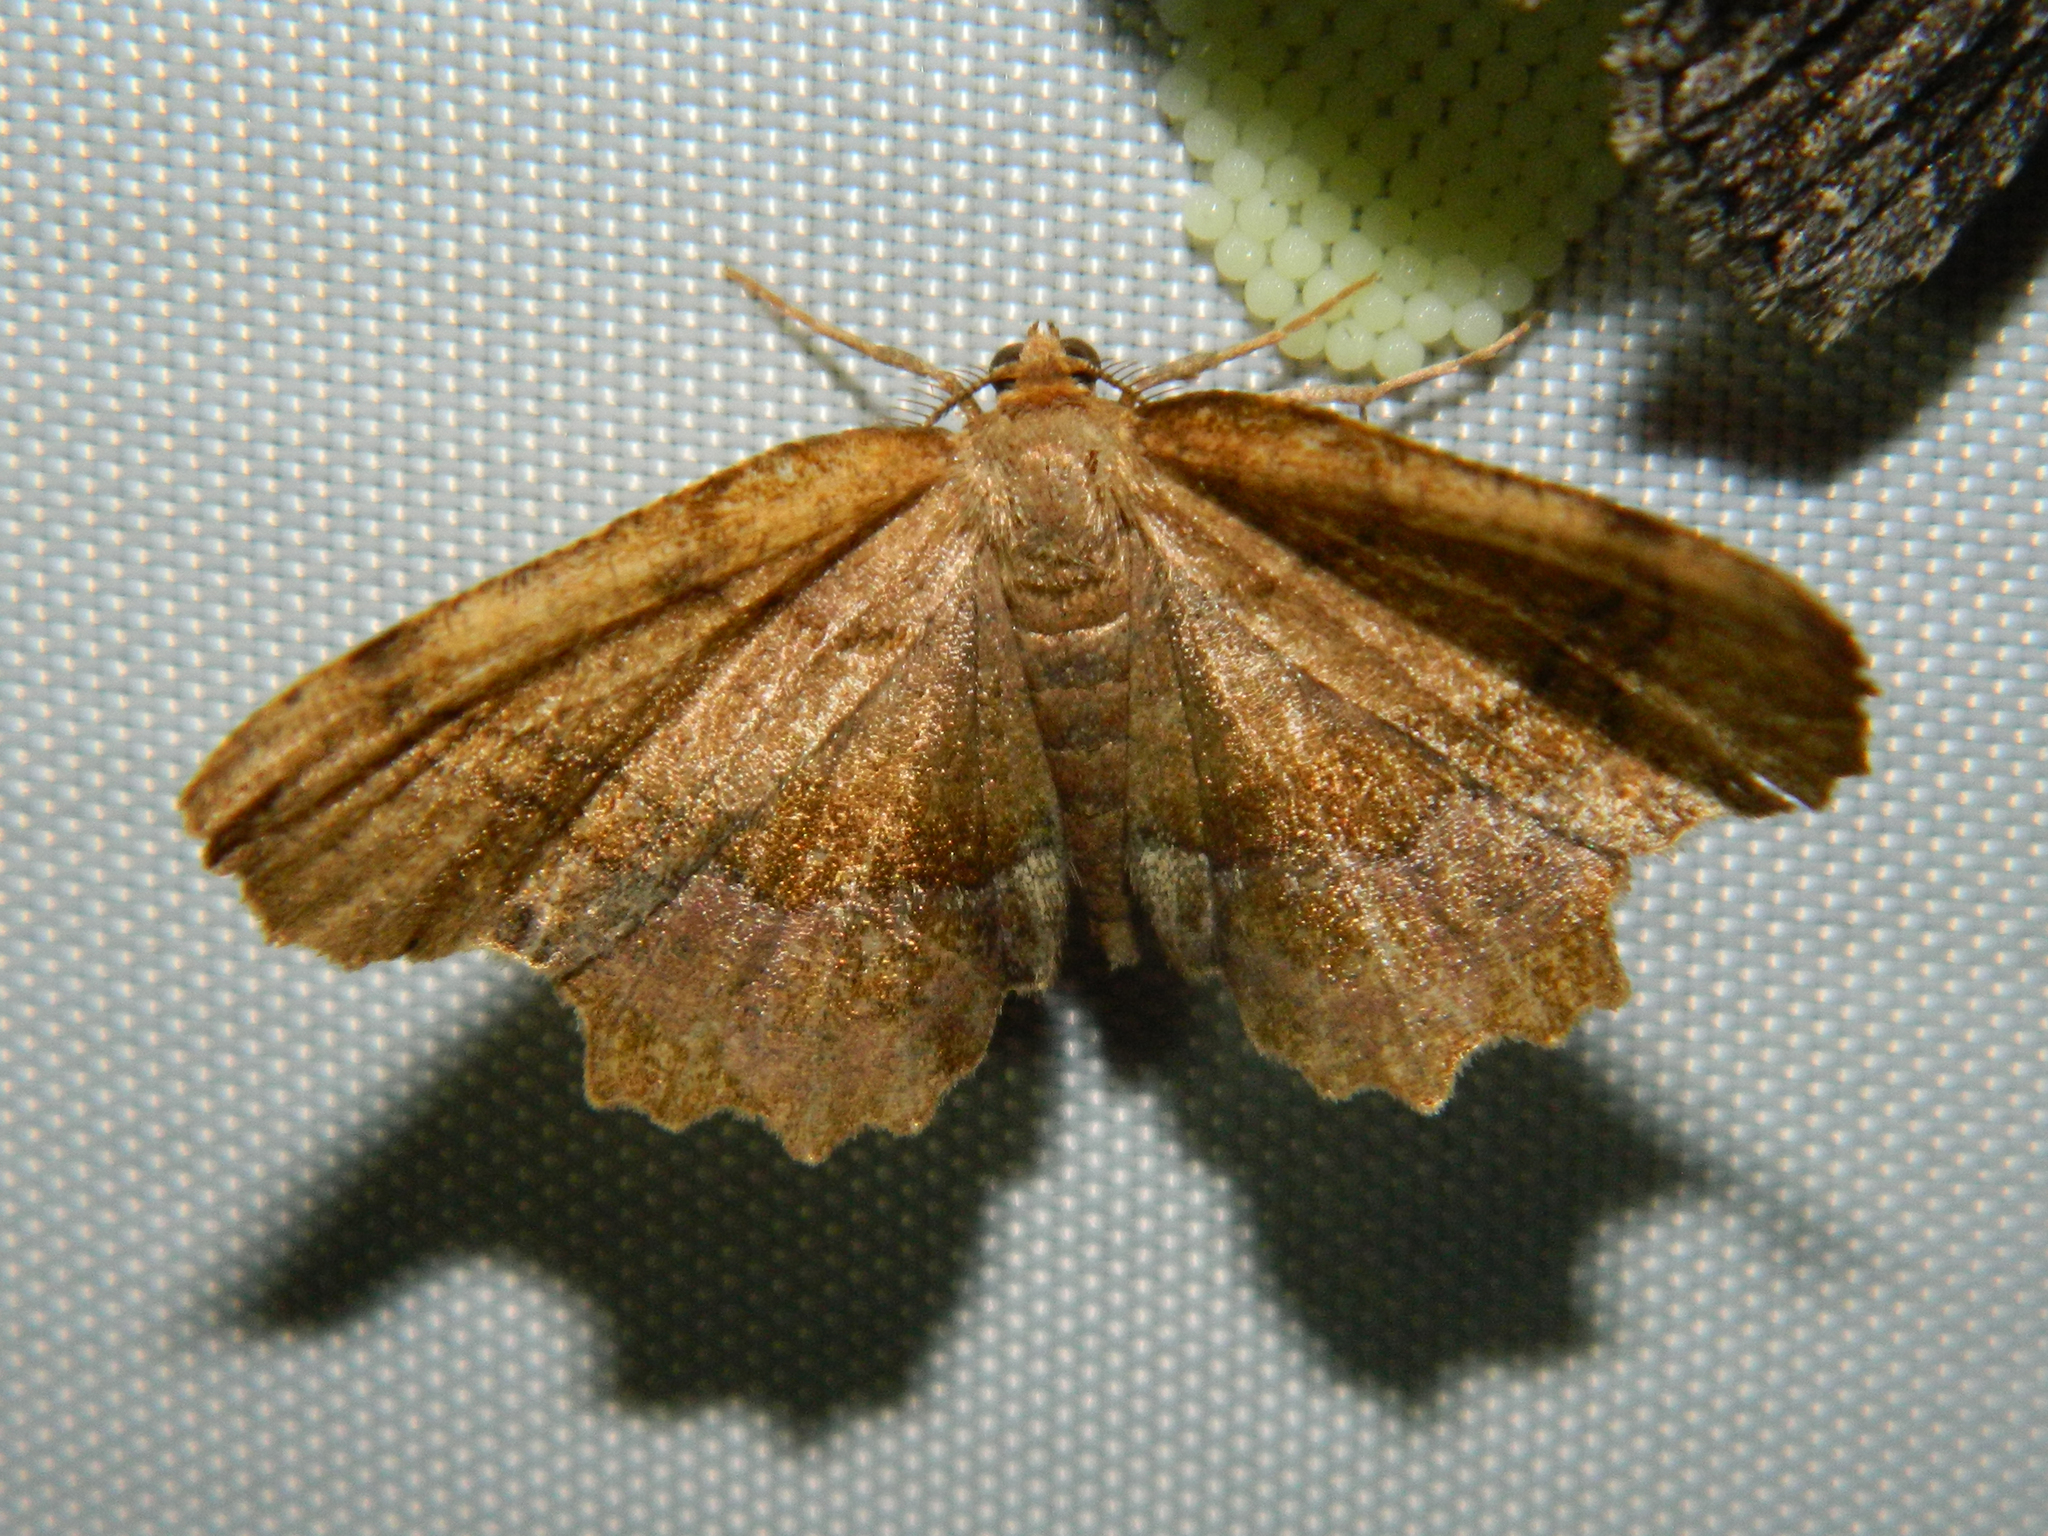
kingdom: Animalia
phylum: Arthropoda
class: Insecta
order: Lepidoptera
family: Geometridae
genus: Cepphis
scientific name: Cepphis armataria
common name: Scallop moth
